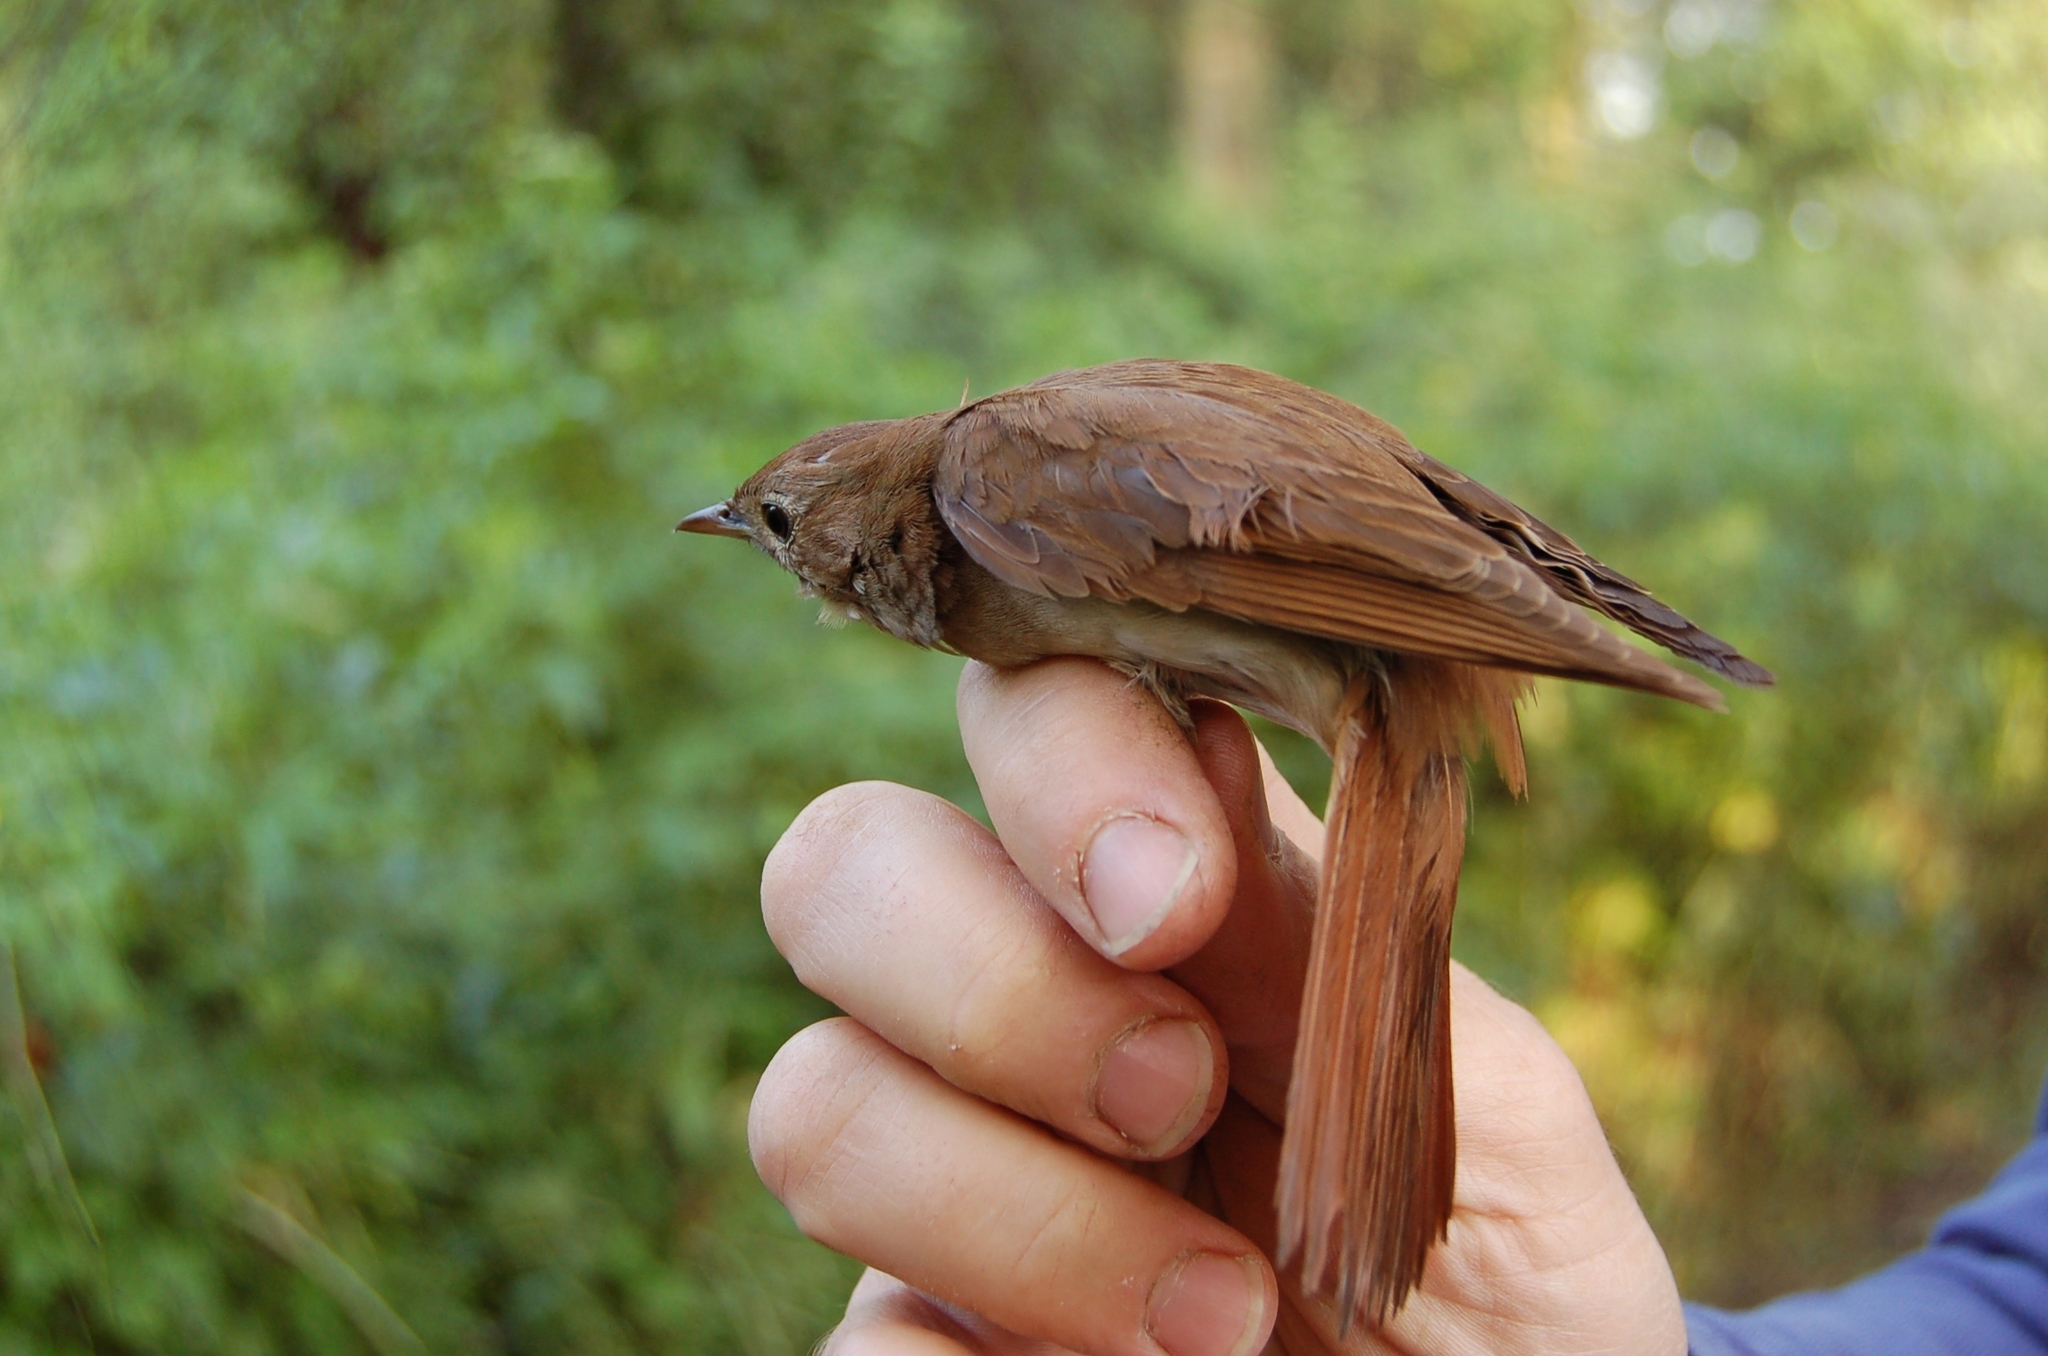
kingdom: Animalia
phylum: Chordata
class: Aves
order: Passeriformes
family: Muscicapidae
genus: Luscinia
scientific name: Luscinia megarhynchos
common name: Common nightingale
